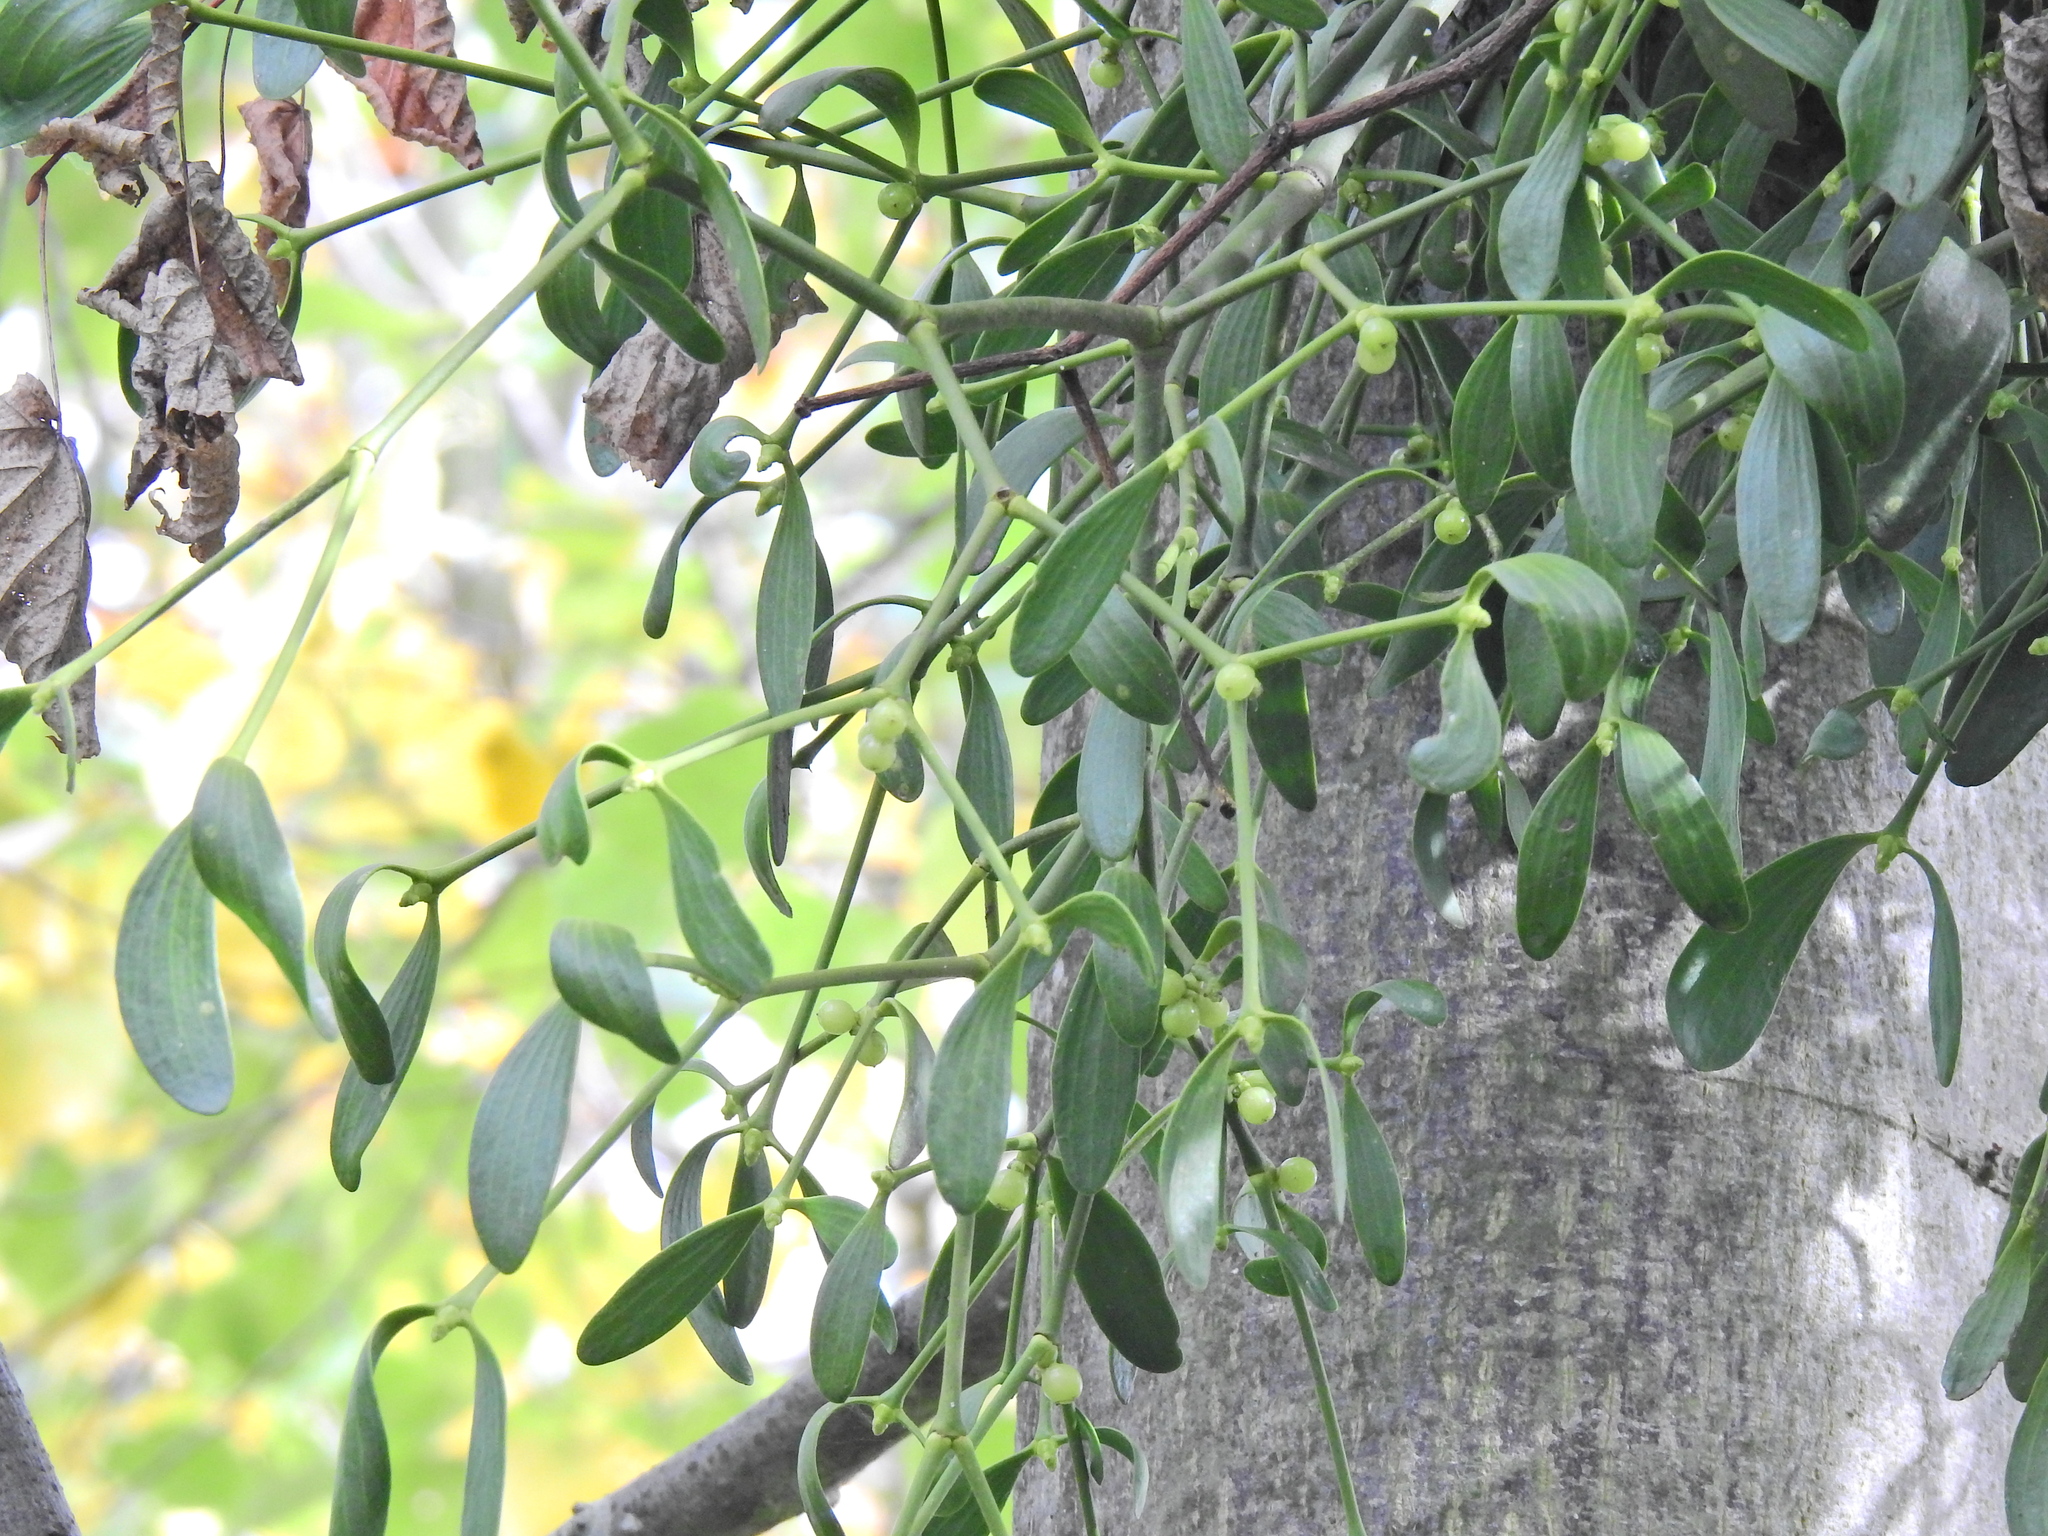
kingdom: Plantae
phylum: Tracheophyta
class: Magnoliopsida
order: Santalales
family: Viscaceae
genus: Viscum
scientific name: Viscum album
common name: Mistletoe
